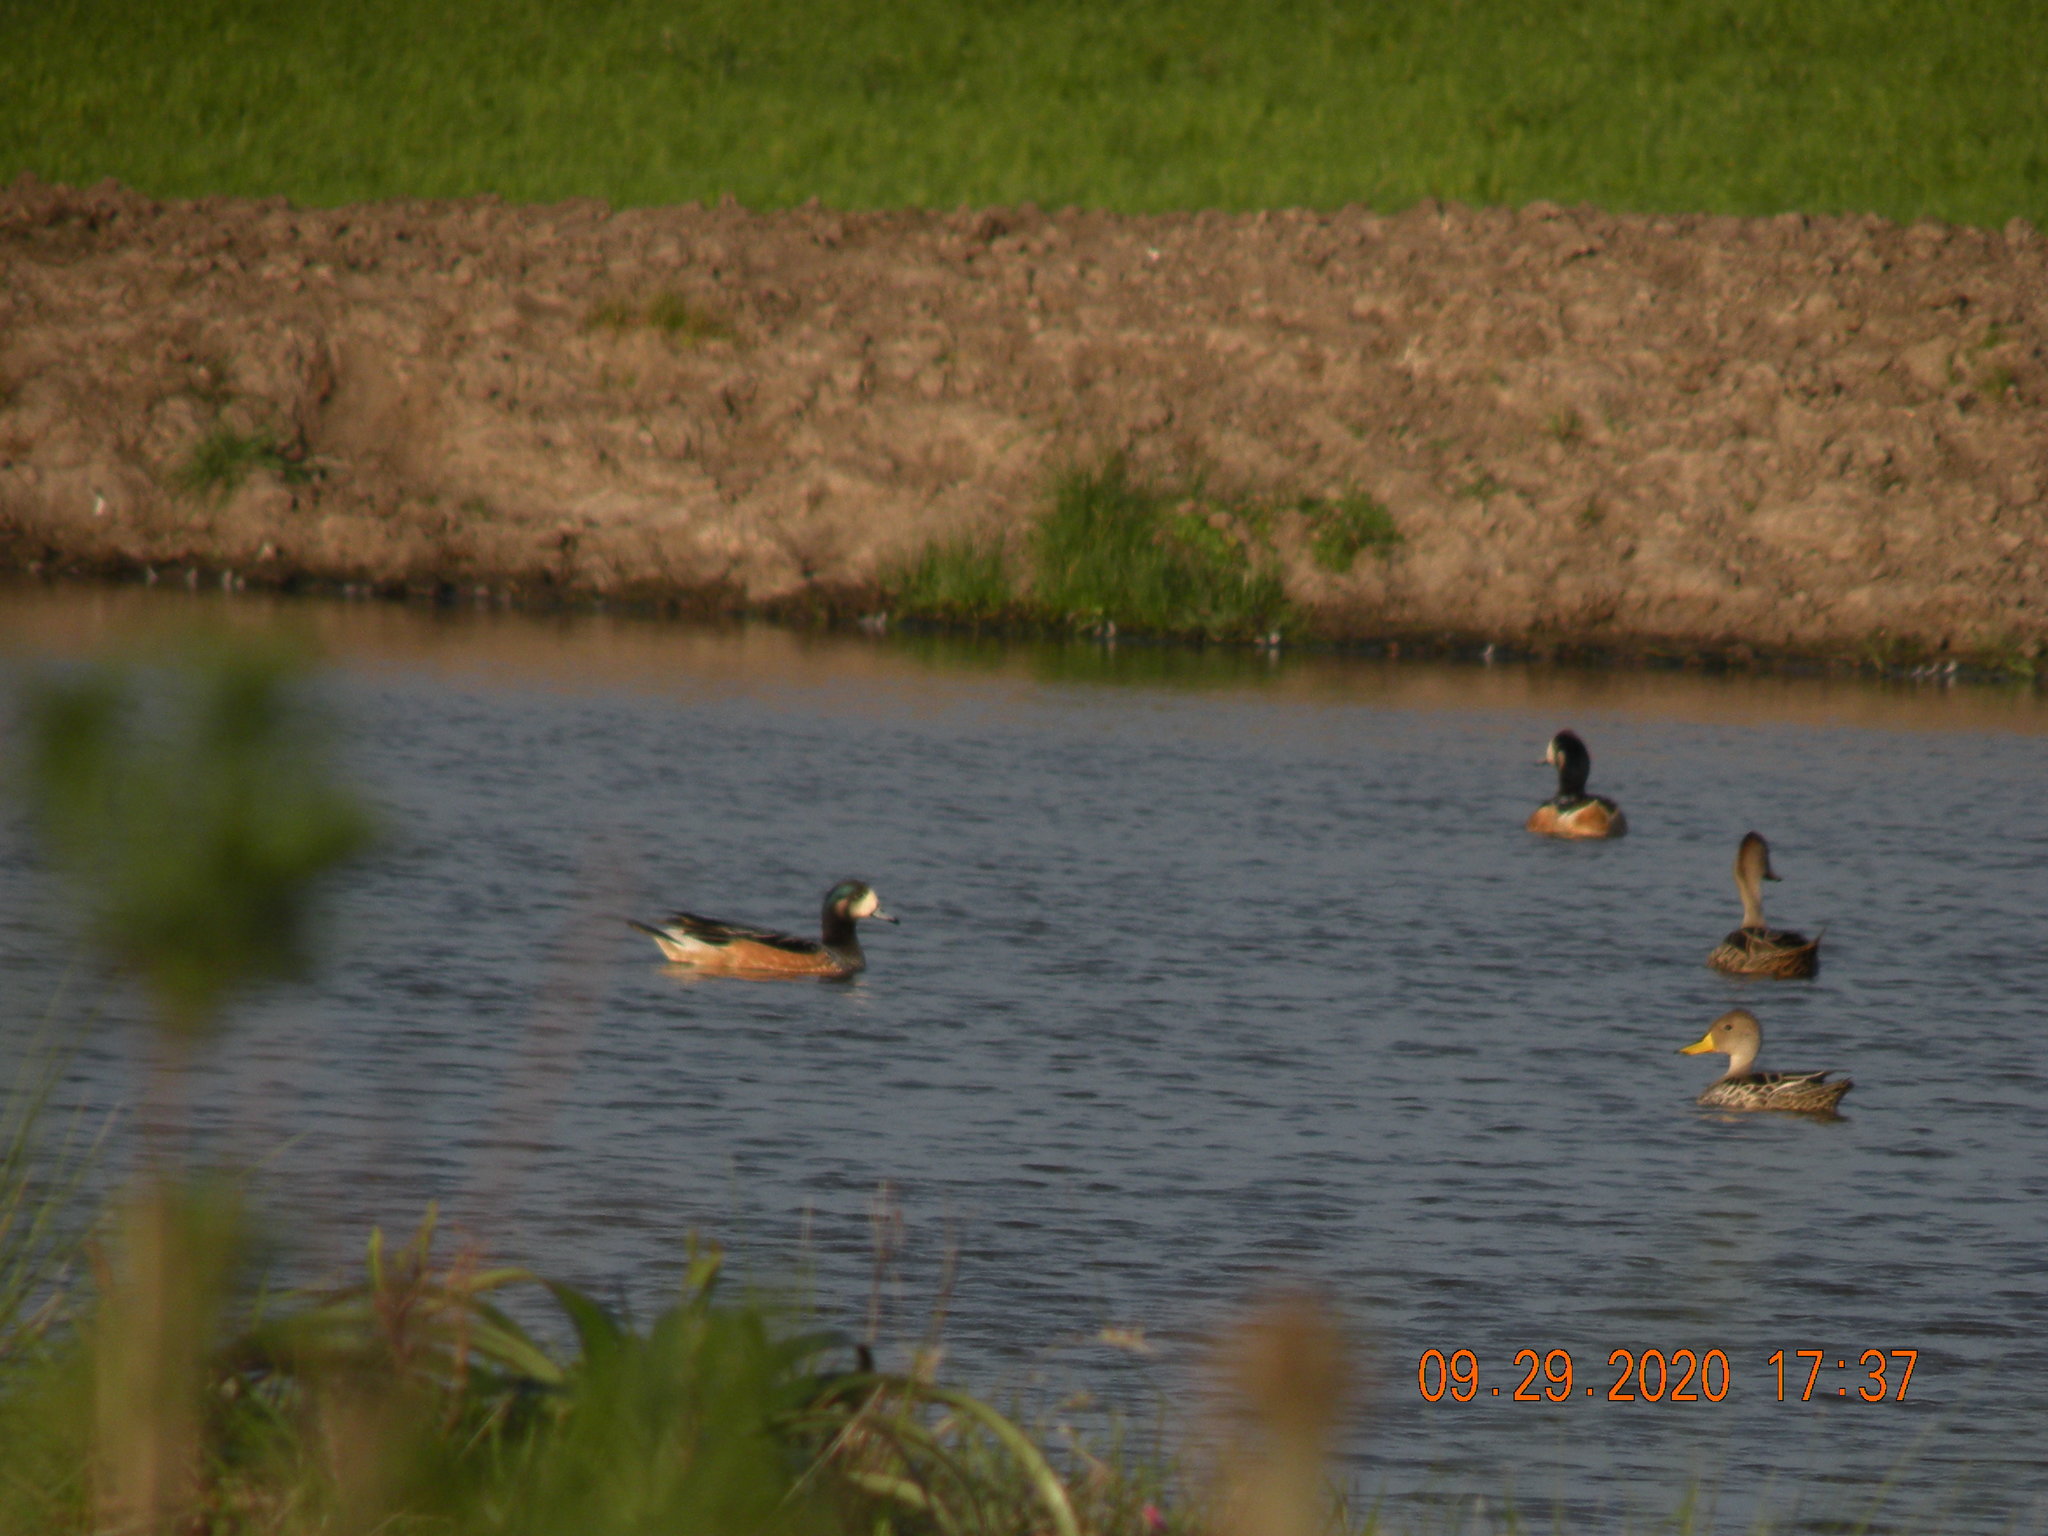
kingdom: Animalia
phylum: Chordata
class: Aves
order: Anseriformes
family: Anatidae
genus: Mareca
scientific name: Mareca sibilatrix
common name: Chiloe wigeon
